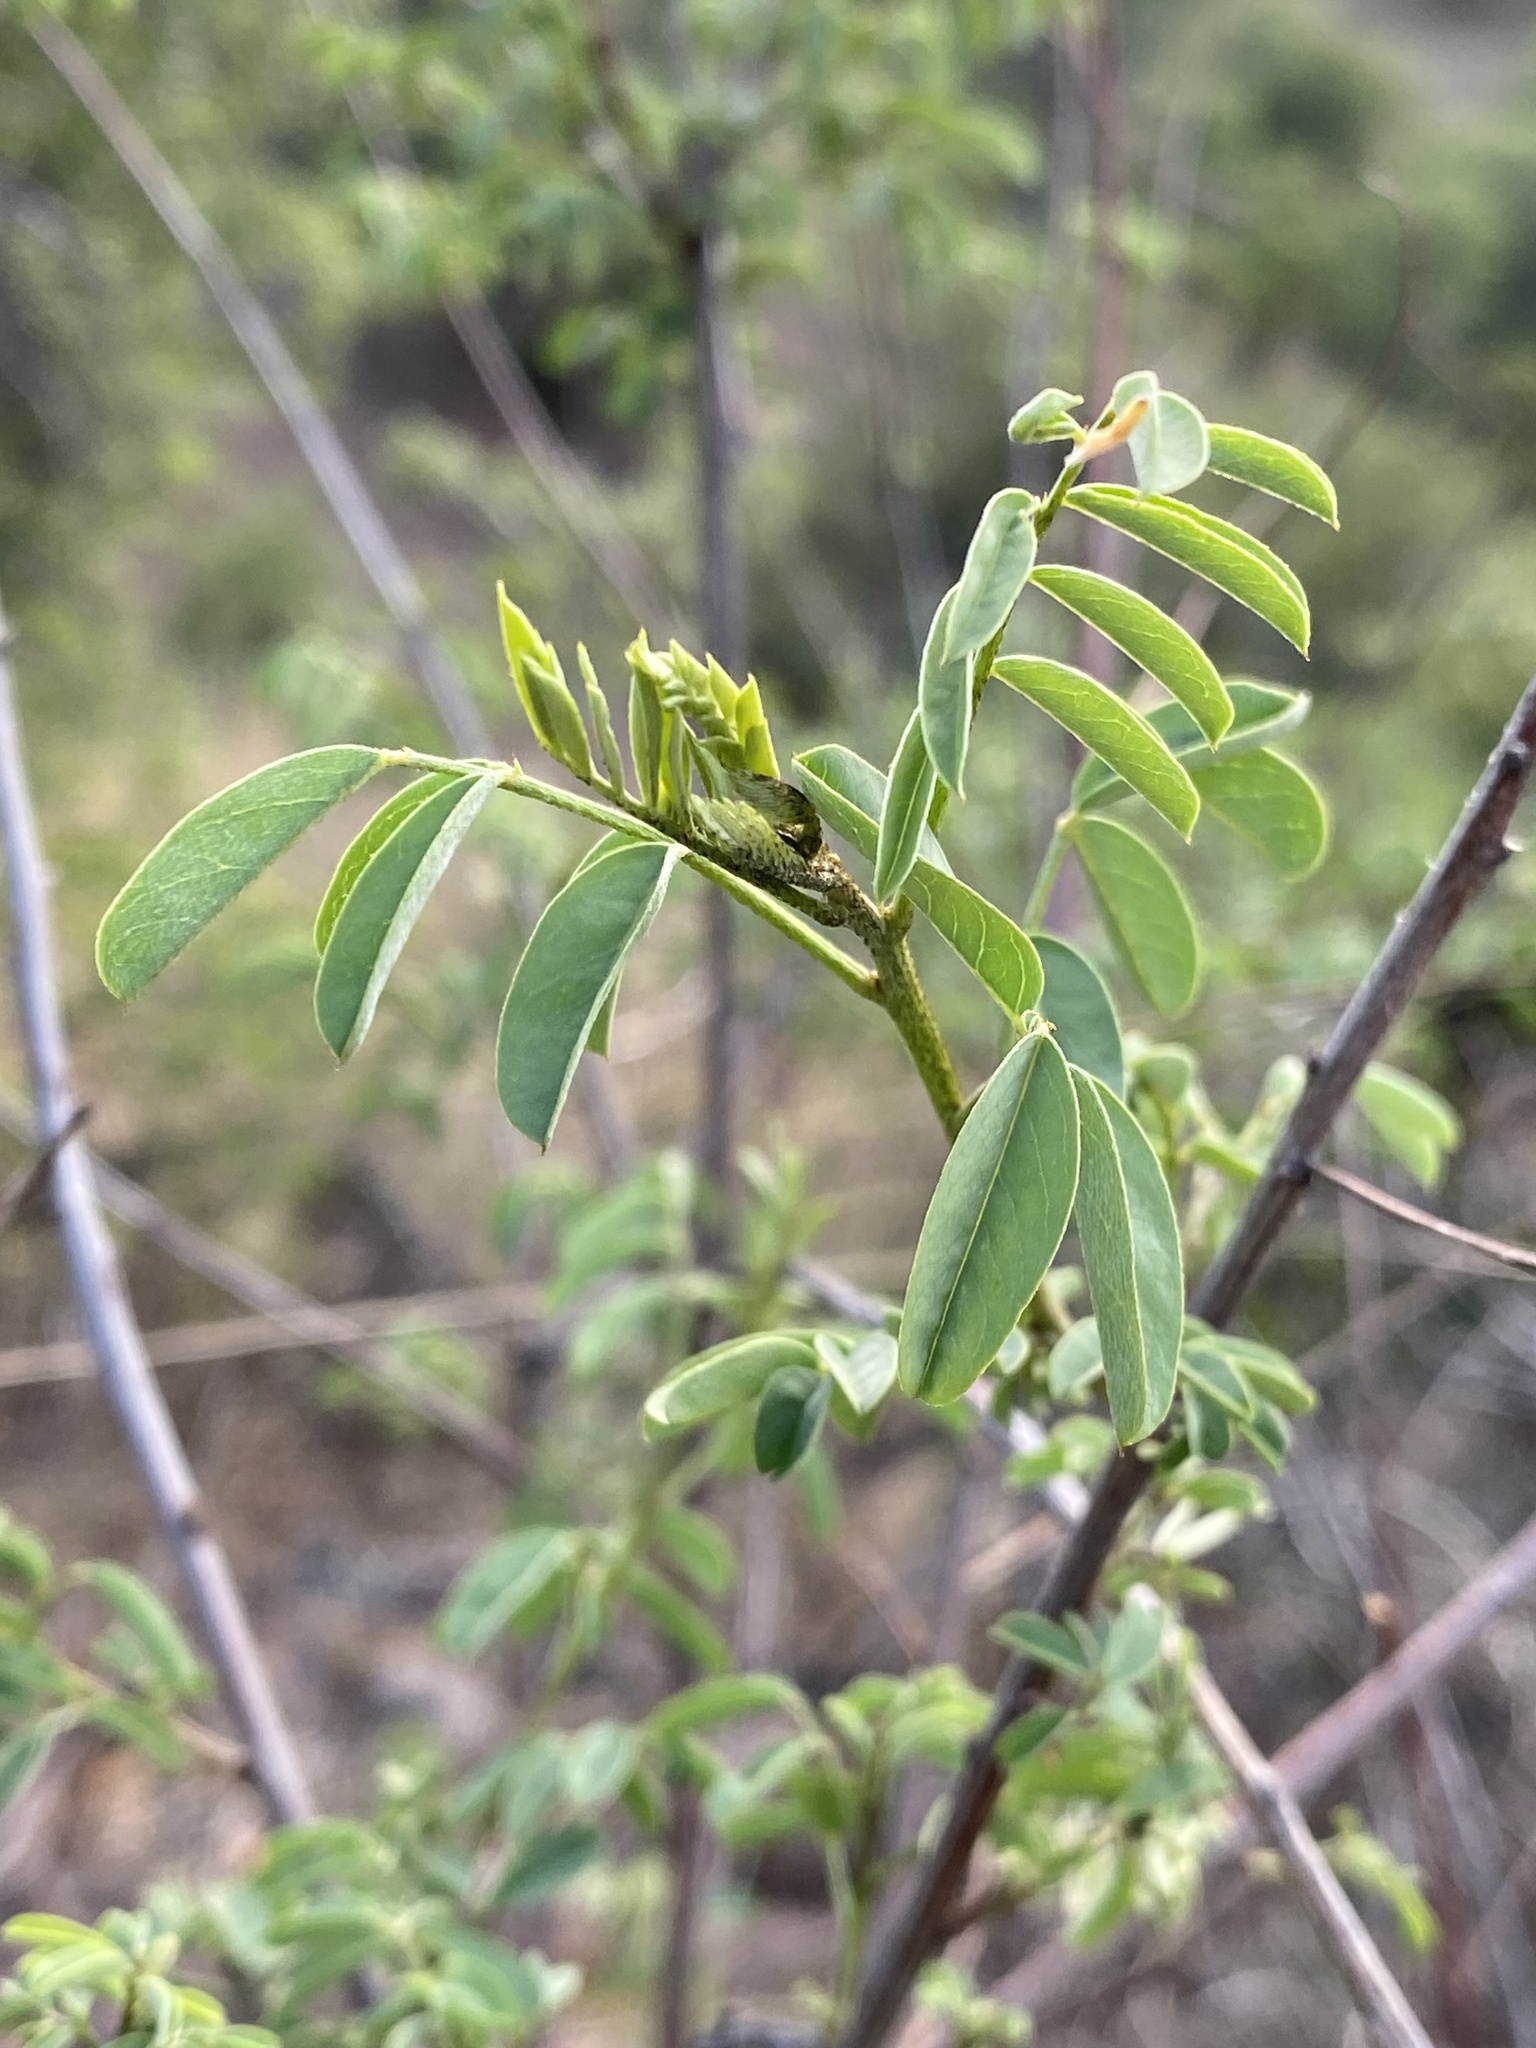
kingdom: Plantae
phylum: Tracheophyta
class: Magnoliopsida
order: Fabales
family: Fabaceae
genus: Indigofera
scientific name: Indigofera sphaerocarpa
